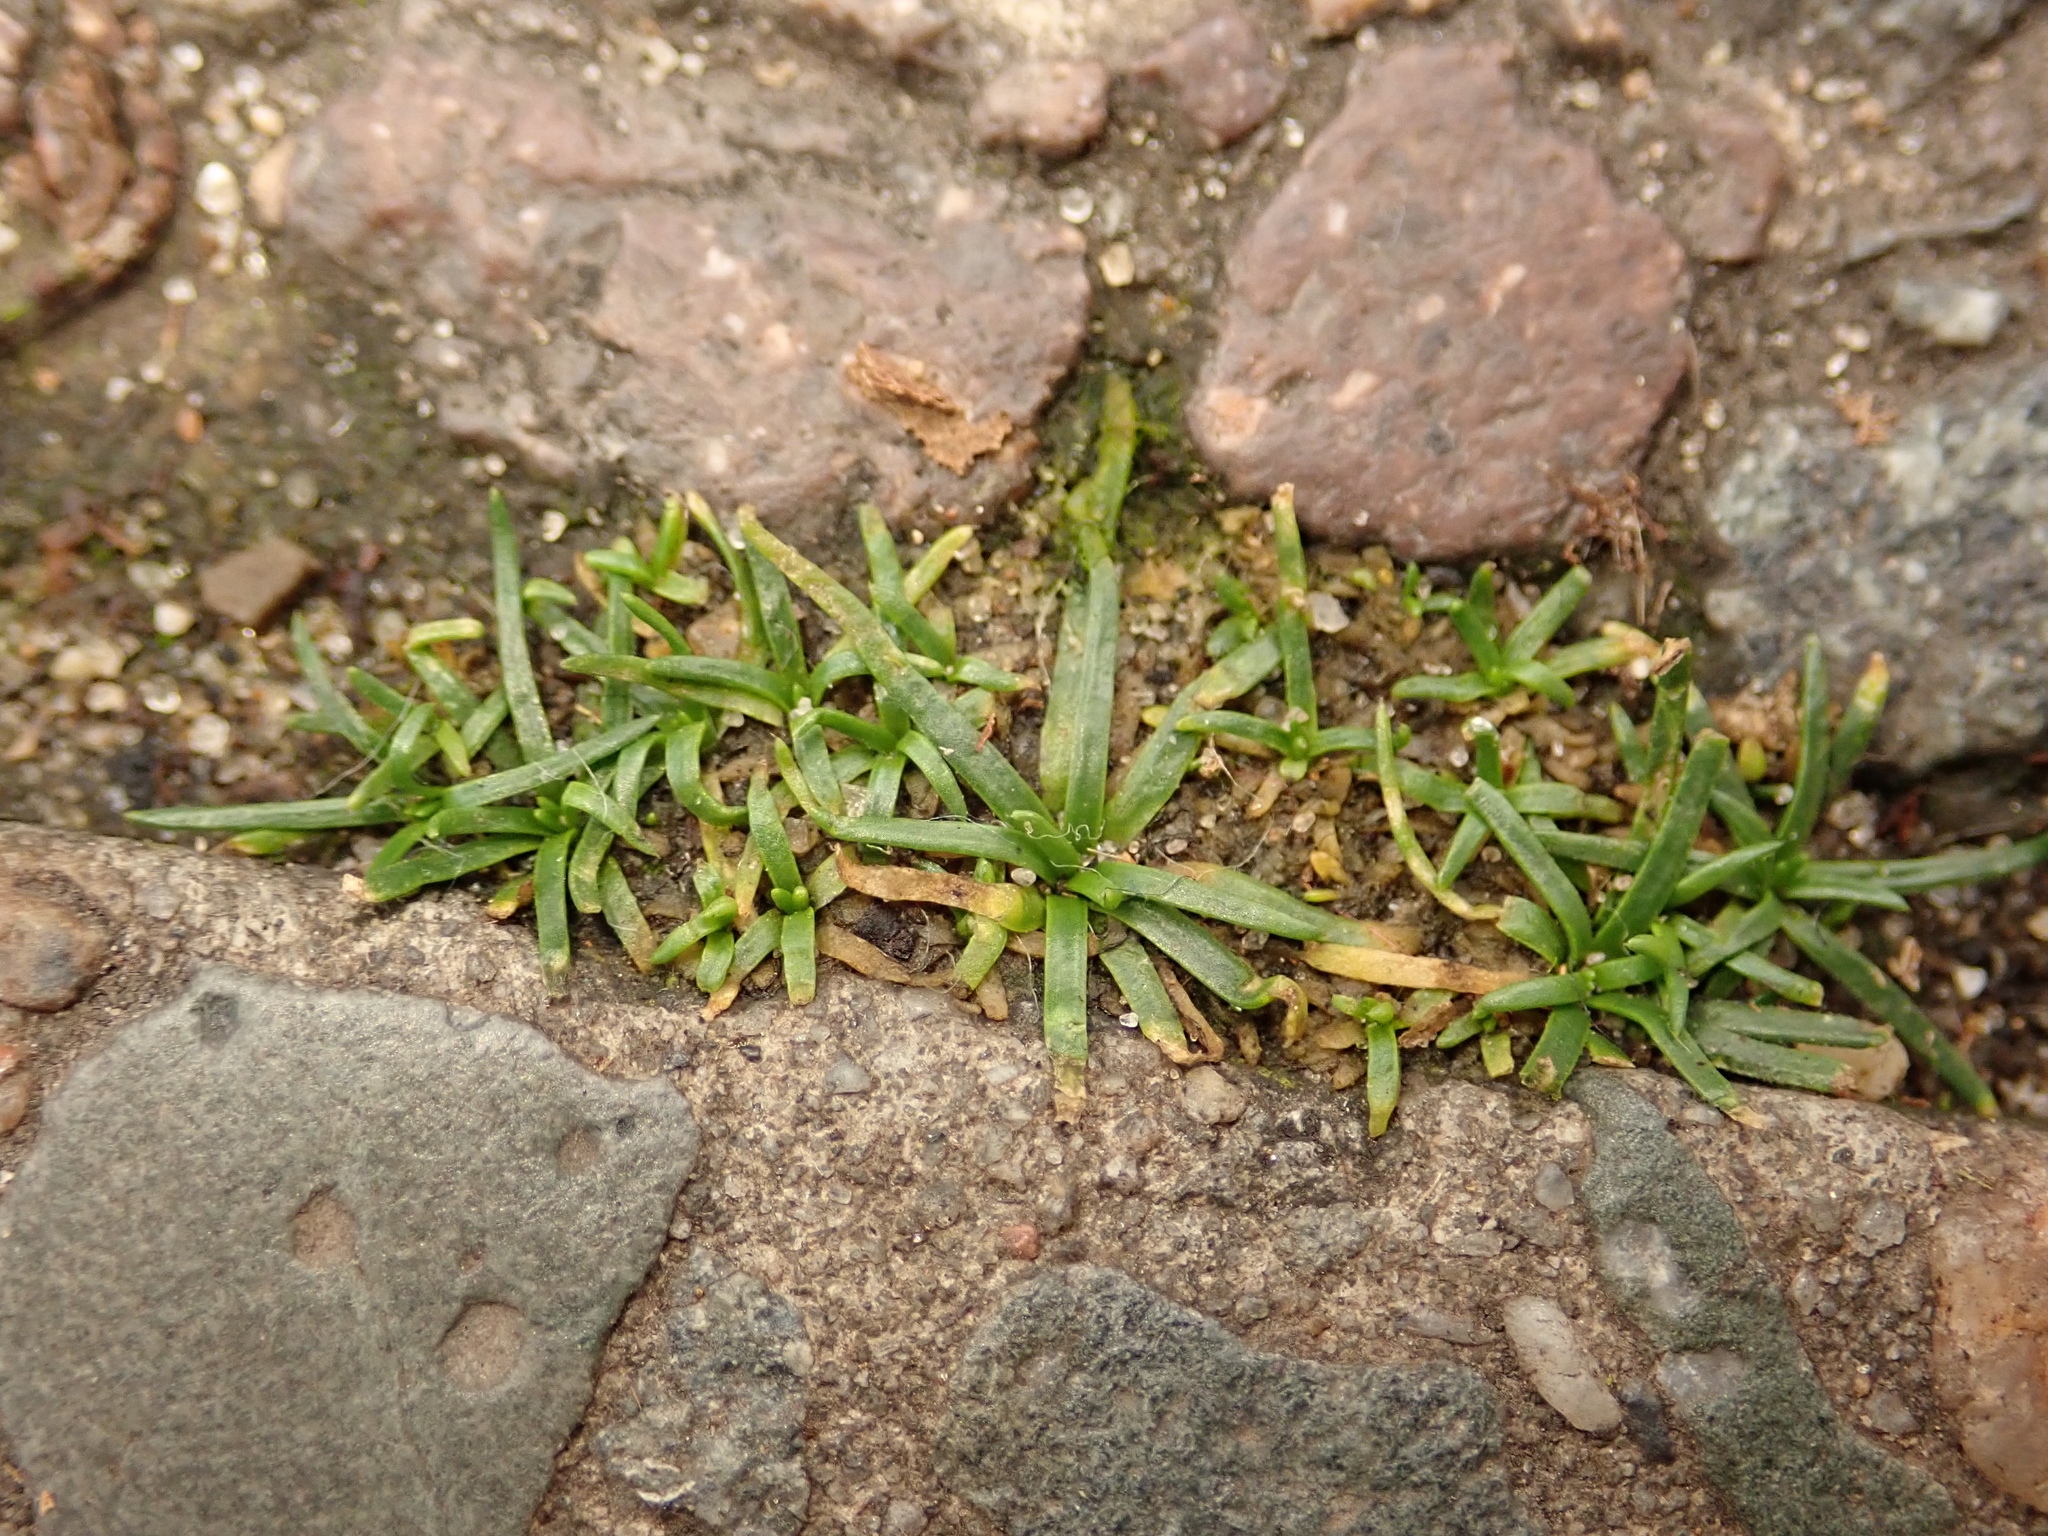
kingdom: Plantae
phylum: Tracheophyta
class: Magnoliopsida
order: Caryophyllales
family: Caryophyllaceae
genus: Sagina
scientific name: Sagina procumbens
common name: Procumbent pearlwort
